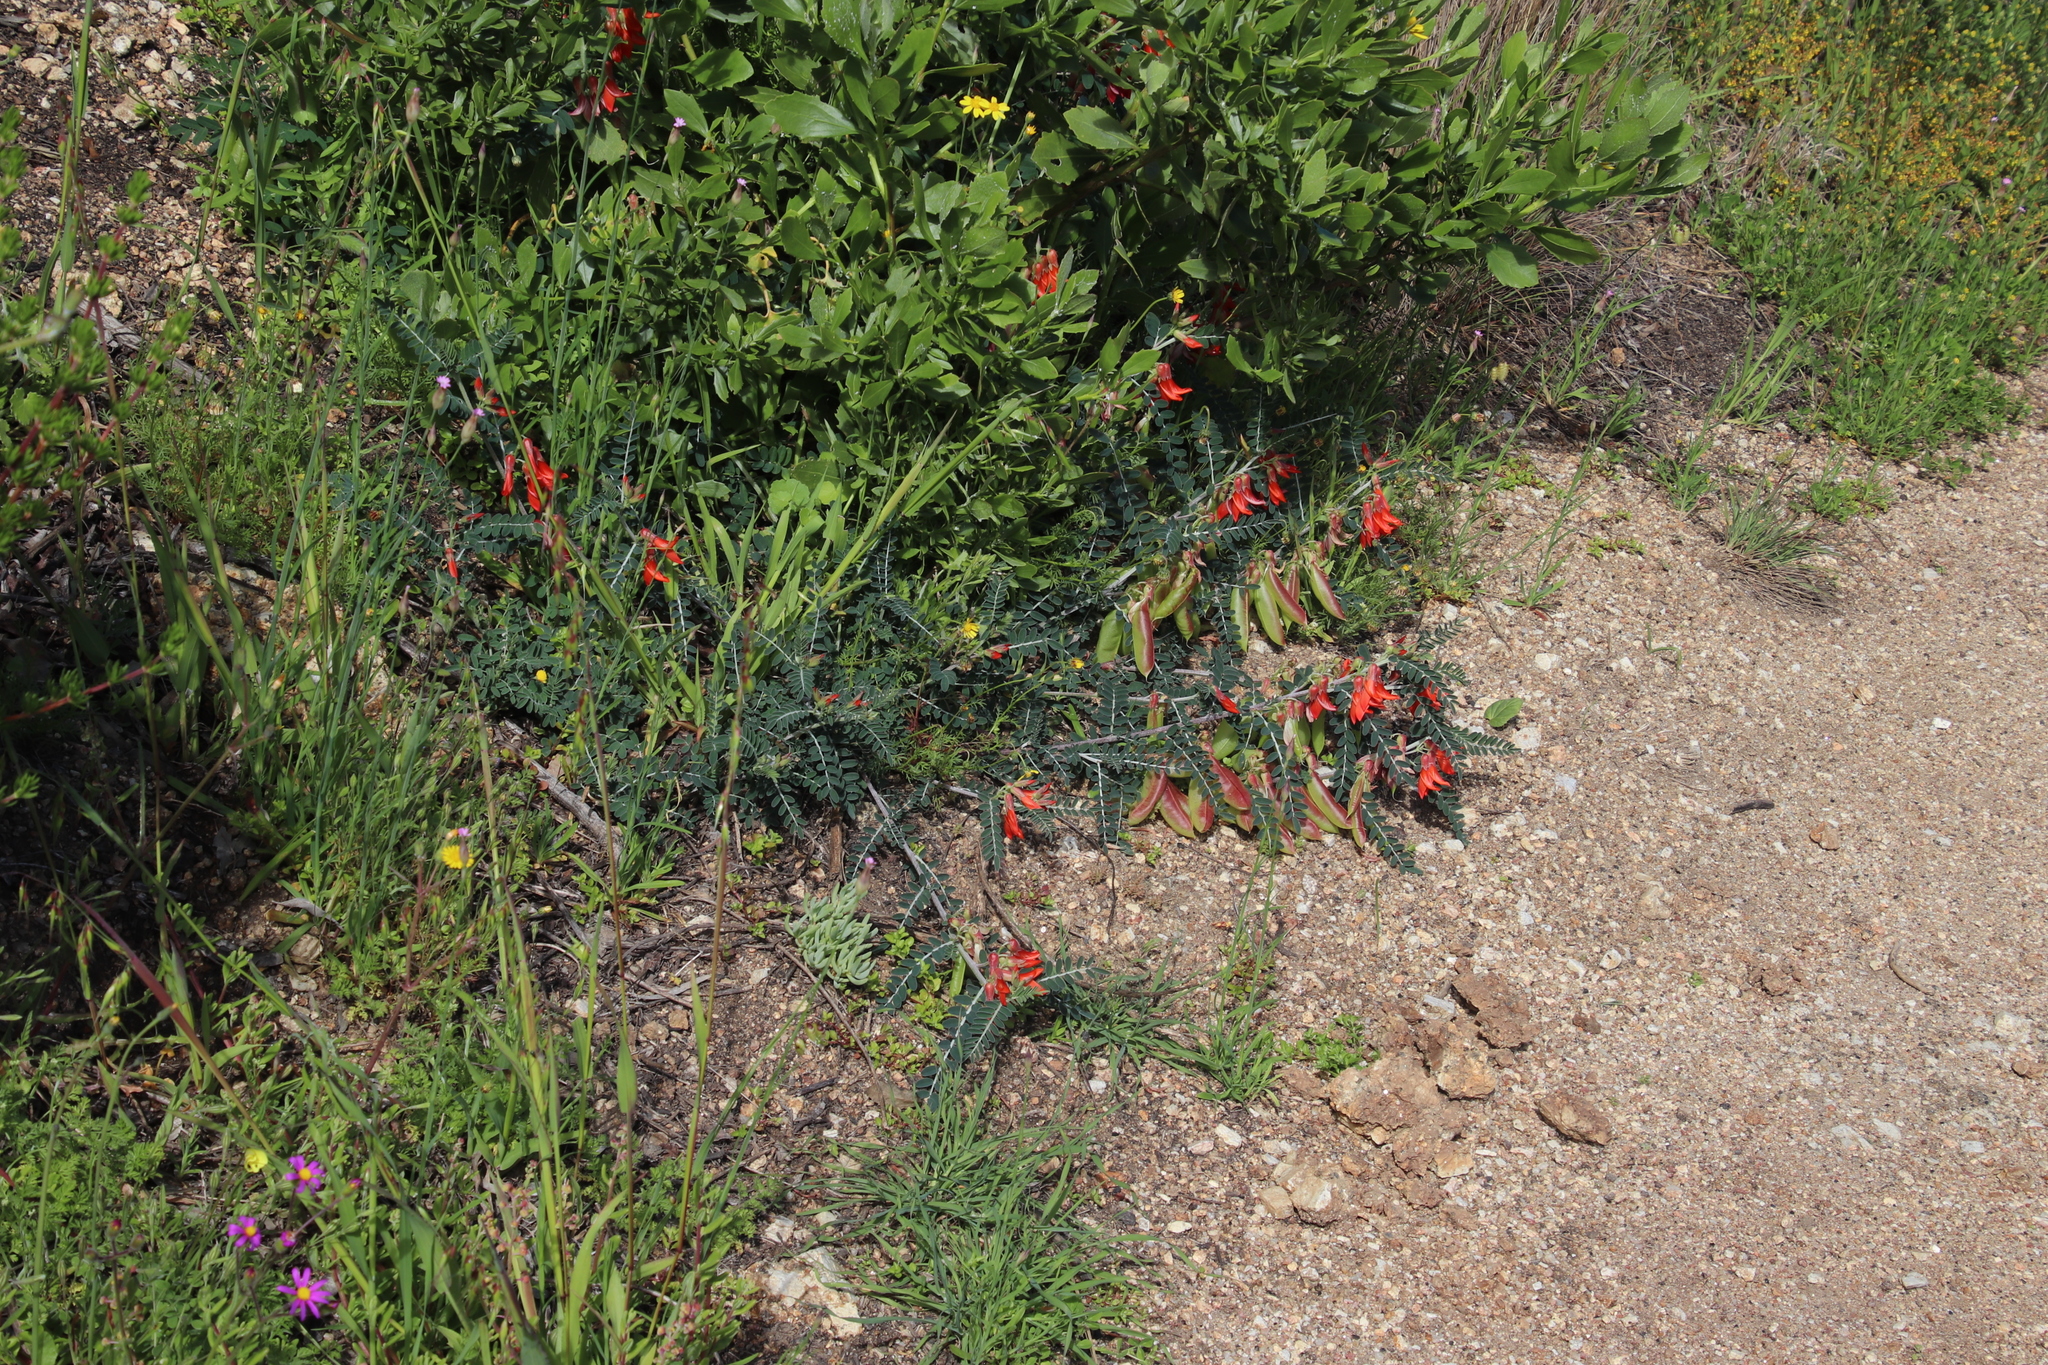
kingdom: Plantae
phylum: Tracheophyta
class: Magnoliopsida
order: Fabales
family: Fabaceae
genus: Lessertia
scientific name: Lessertia frutescens
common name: Balloon-pea
